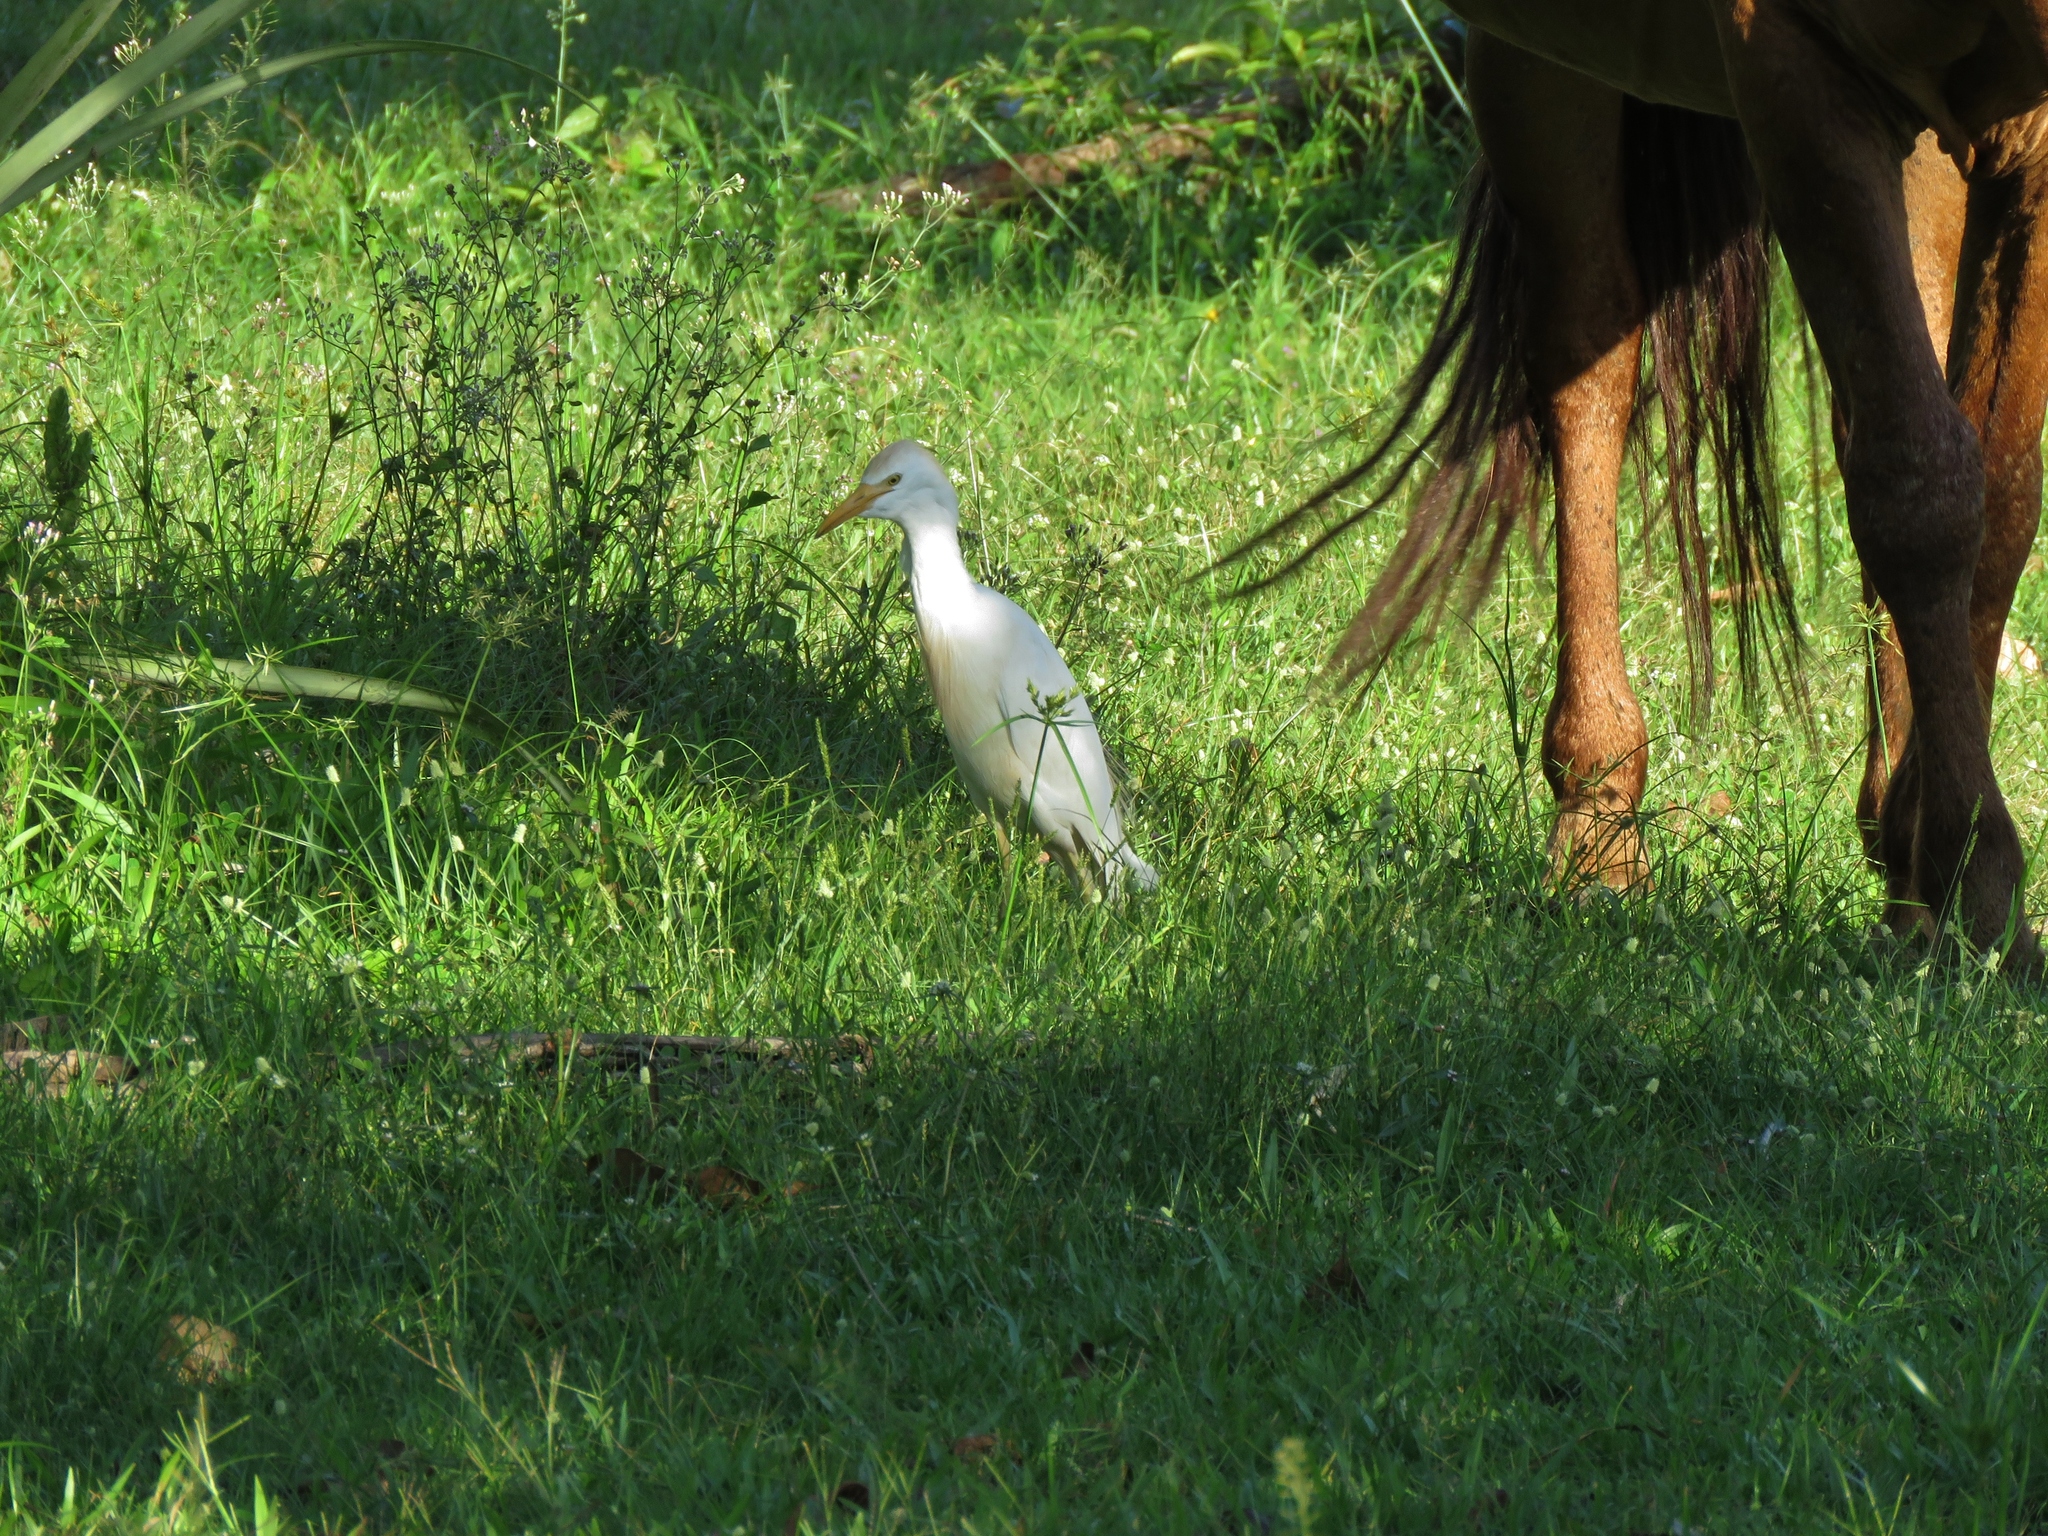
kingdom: Animalia
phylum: Chordata
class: Aves
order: Pelecaniformes
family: Ardeidae
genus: Bubulcus
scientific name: Bubulcus ibis
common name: Cattle egret
